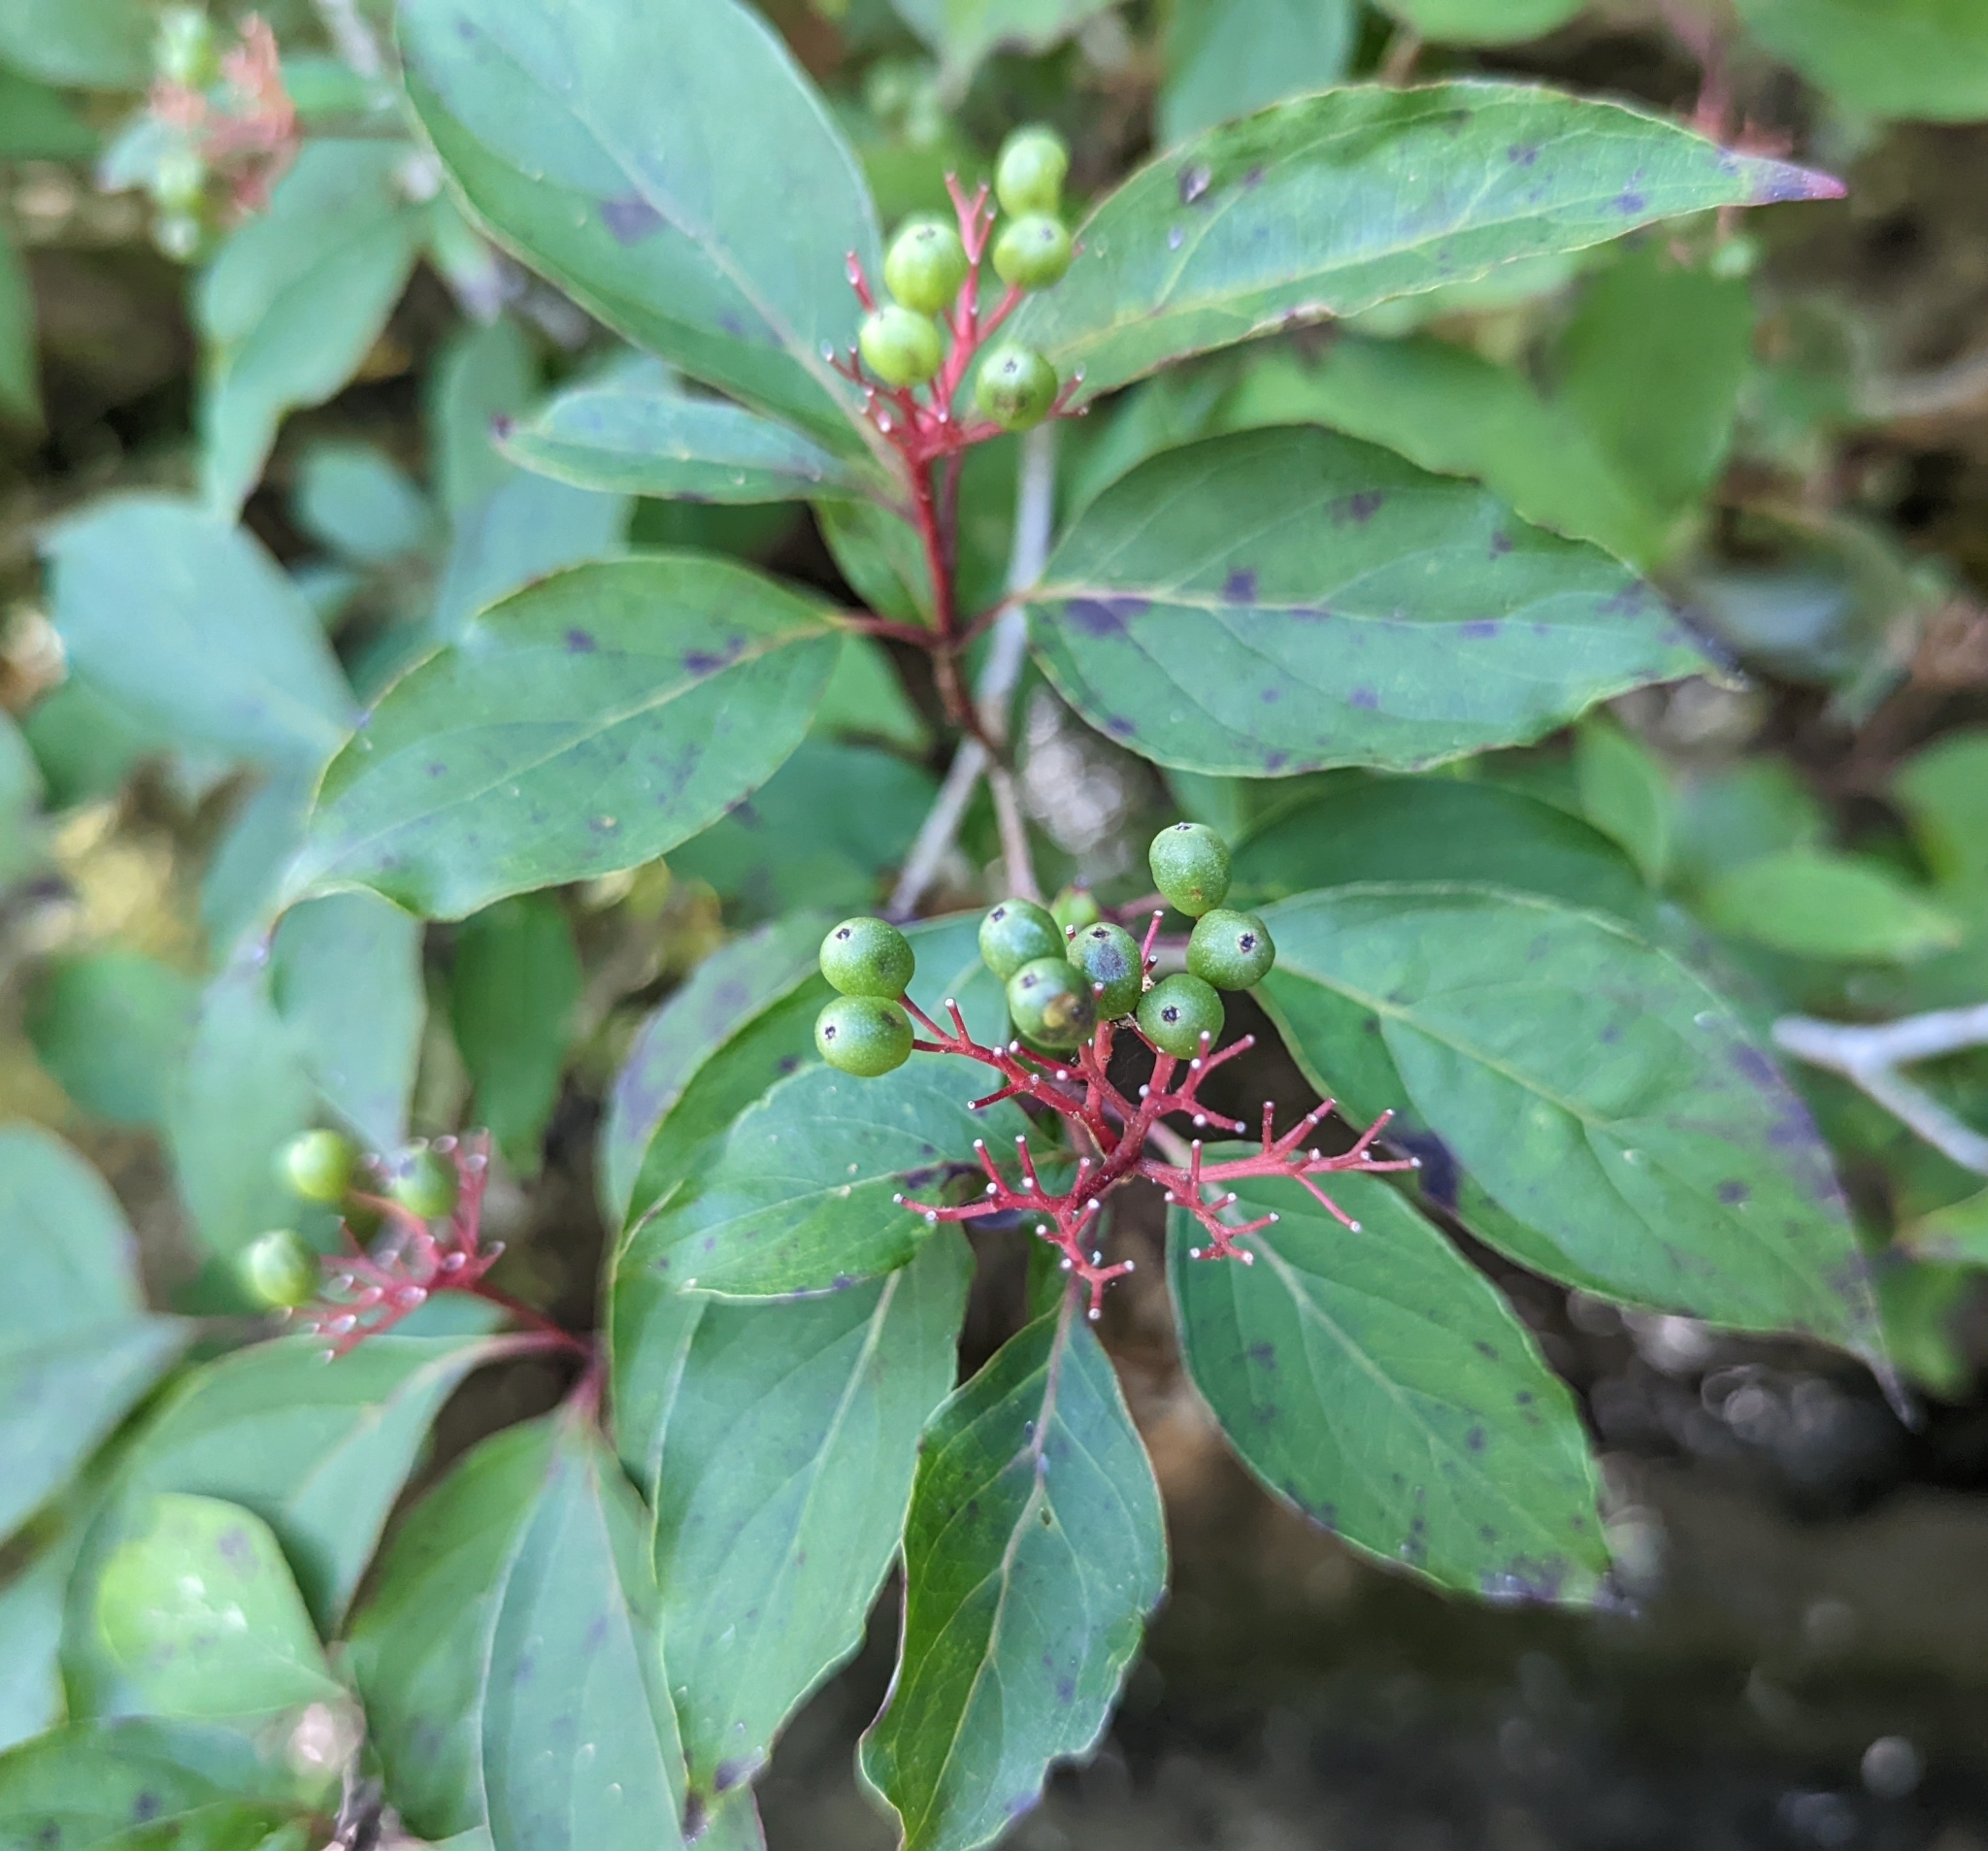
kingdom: Plantae
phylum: Tracheophyta
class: Magnoliopsida
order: Cornales
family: Cornaceae
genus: Cornus
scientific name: Cornus foemina
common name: Swamp dogwood
